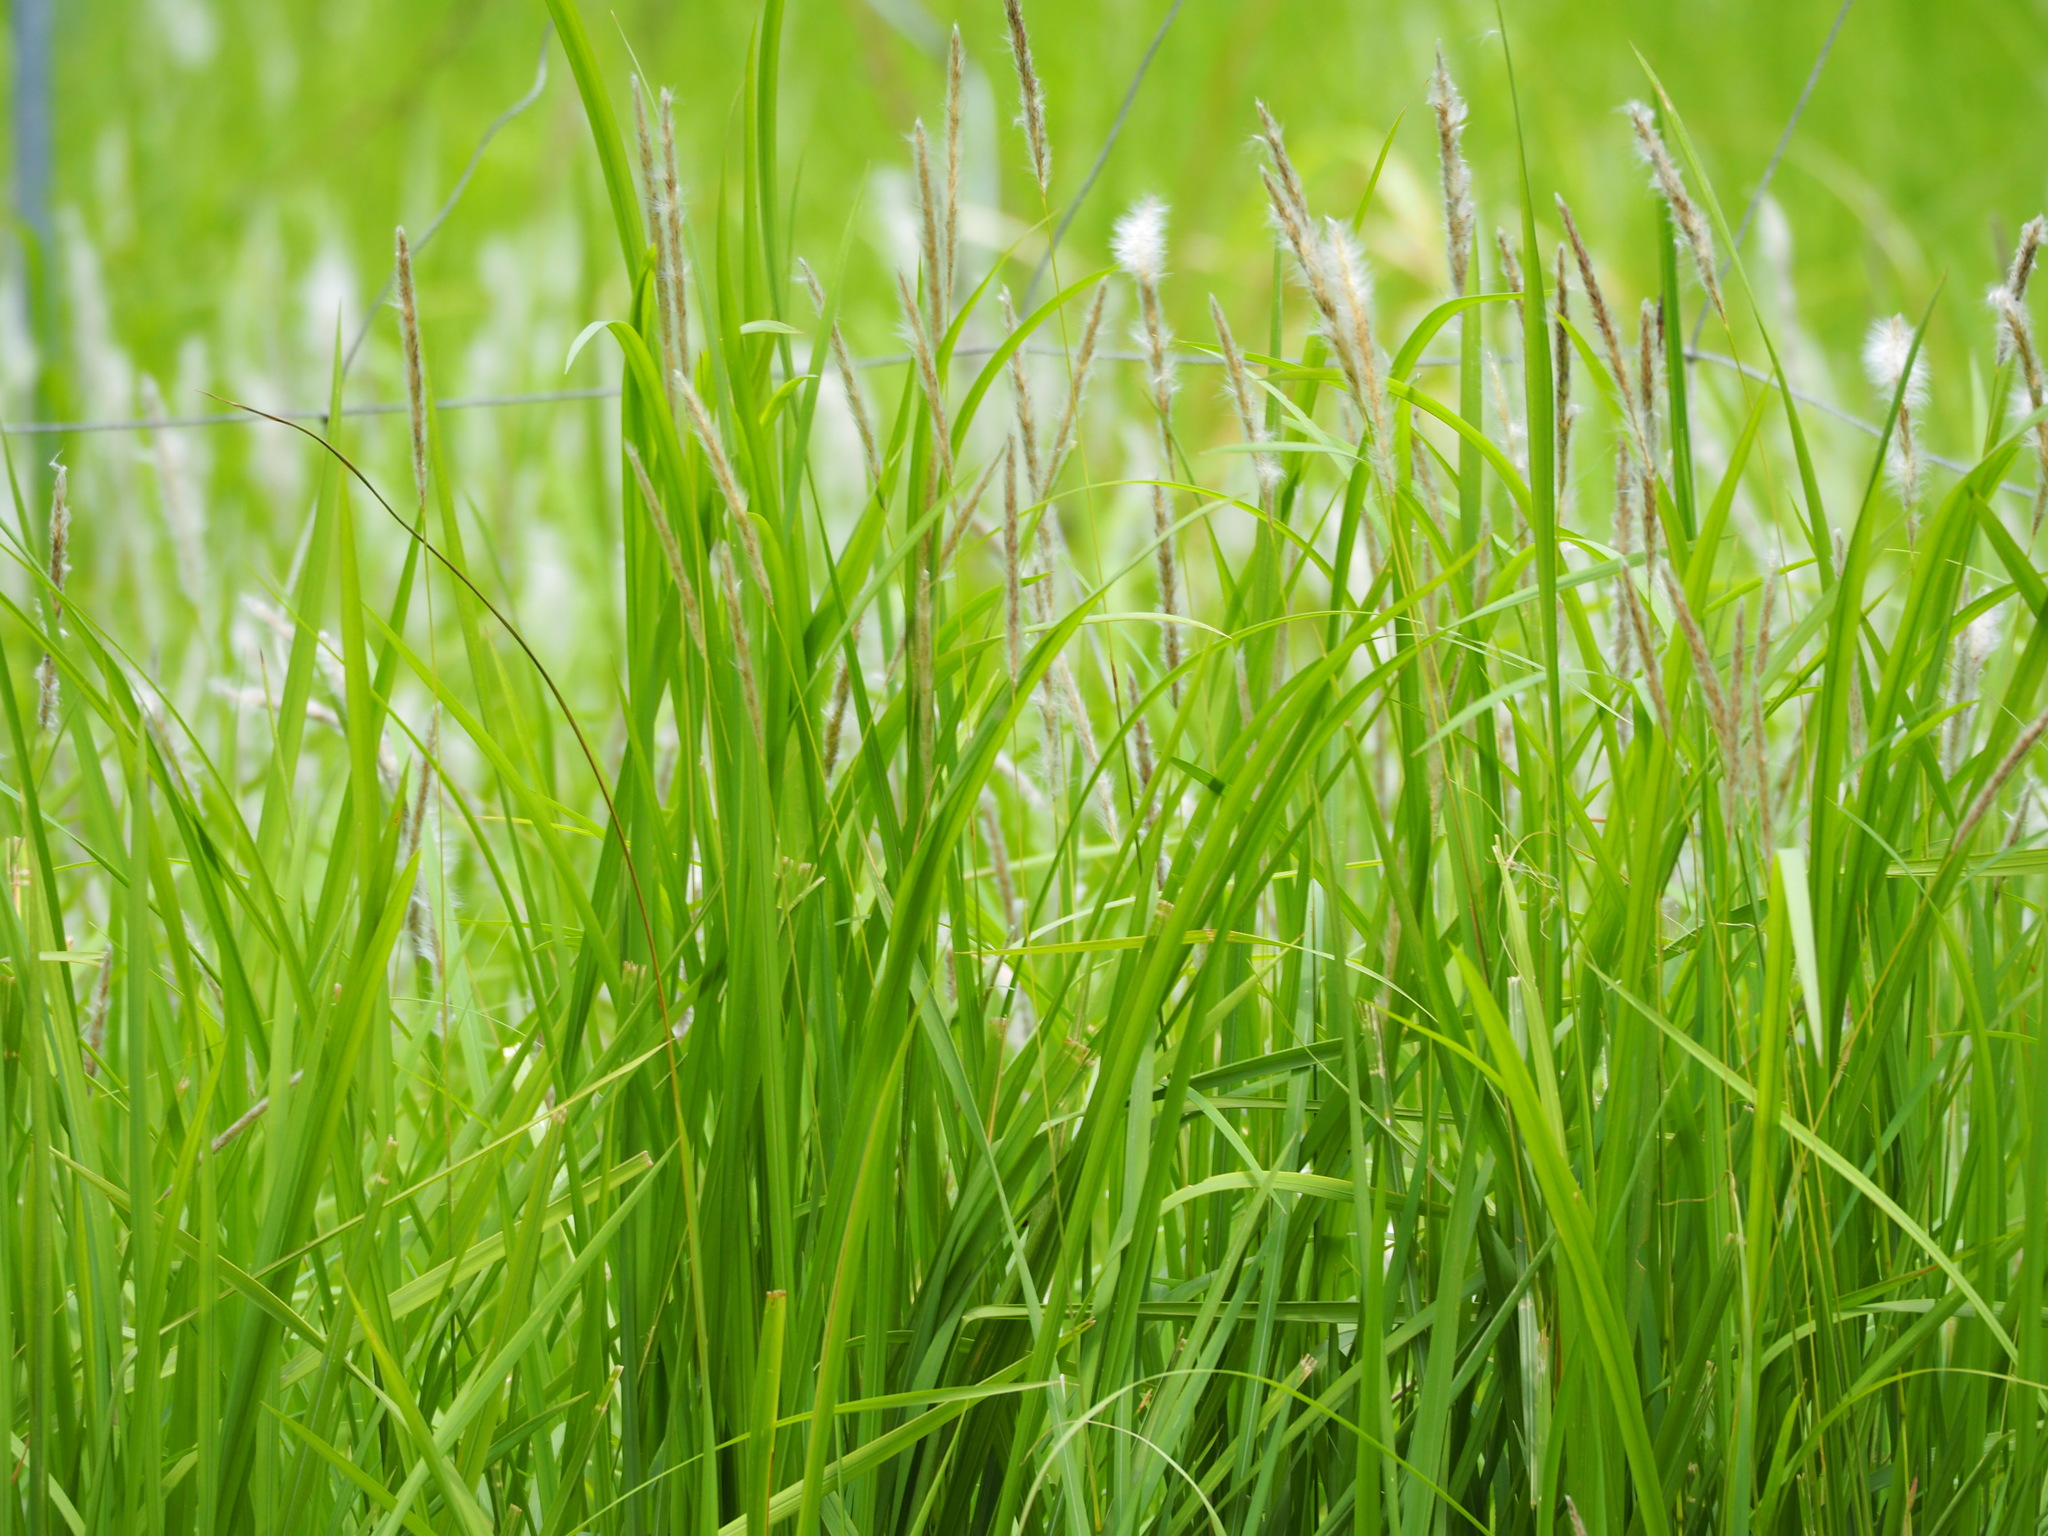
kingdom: Plantae
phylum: Tracheophyta
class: Liliopsida
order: Poales
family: Poaceae
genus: Imperata
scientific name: Imperata cylindrica
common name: Cogongrass
